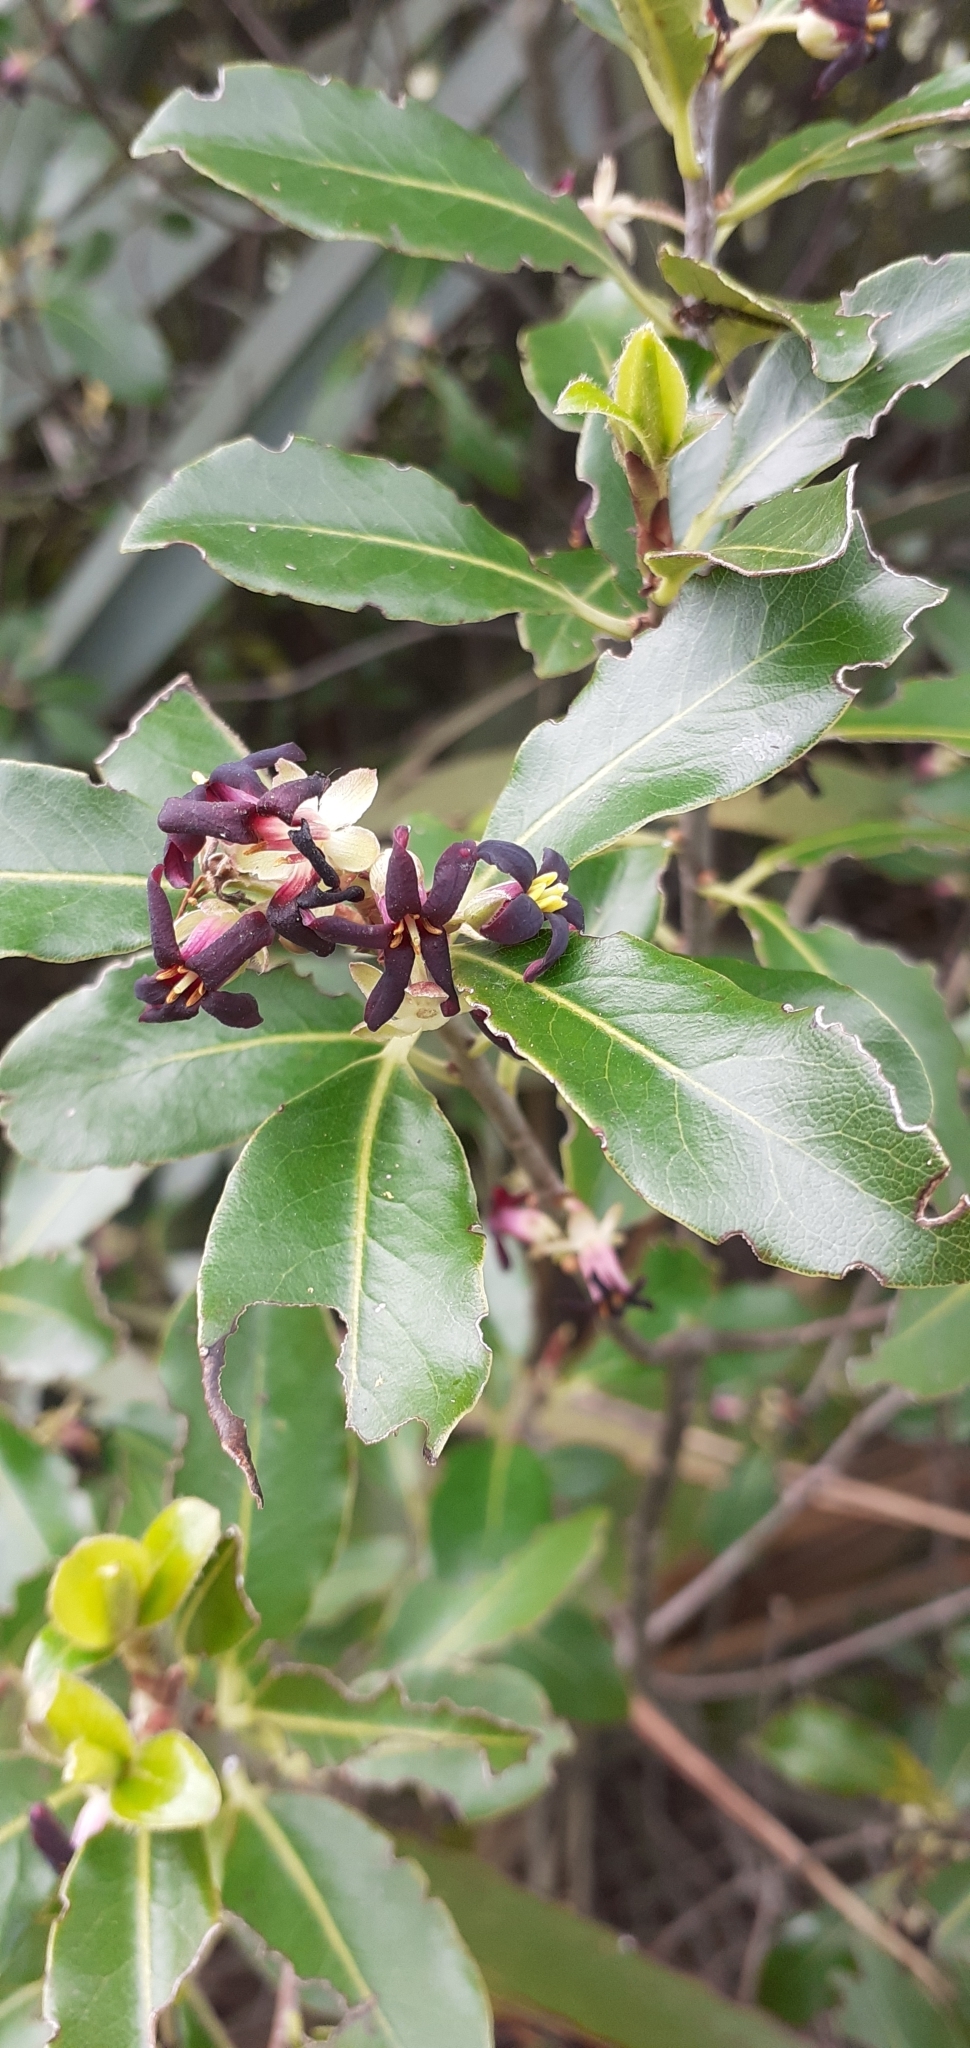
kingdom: Plantae
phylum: Tracheophyta
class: Magnoliopsida
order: Apiales
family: Pittosporaceae
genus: Pittosporum
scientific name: Pittosporum tenuifolium
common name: Kohuhu
